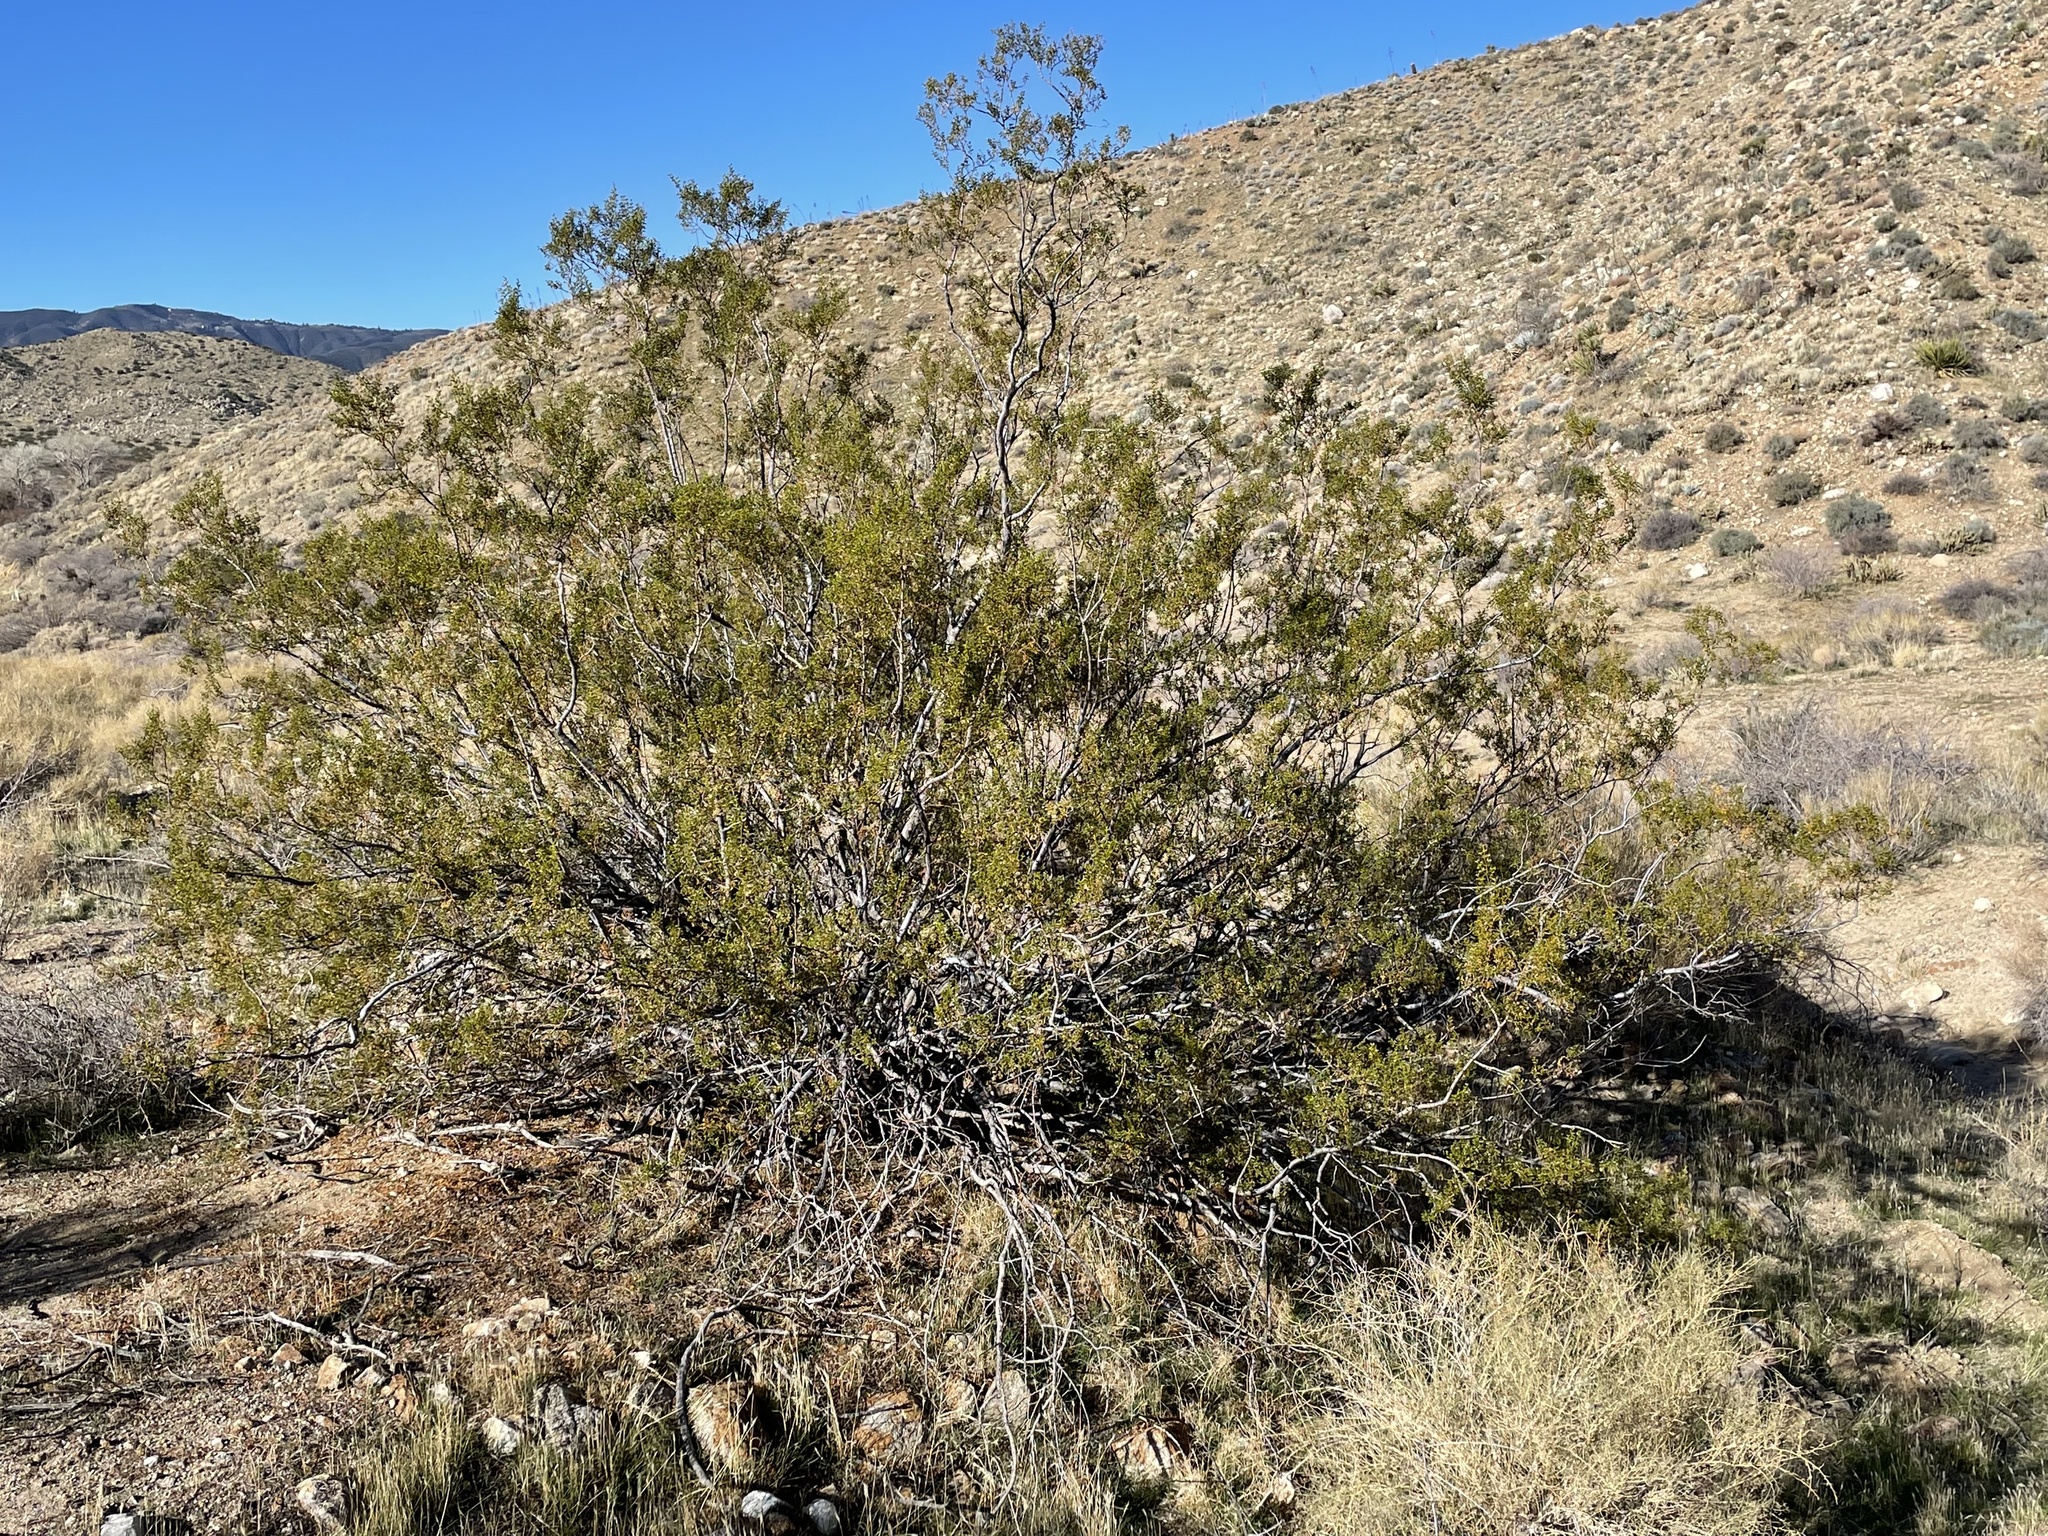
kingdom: Animalia
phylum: Arthropoda
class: Insecta
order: Diptera
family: Cecidomyiidae
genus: Asphondylia
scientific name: Asphondylia rosetta
